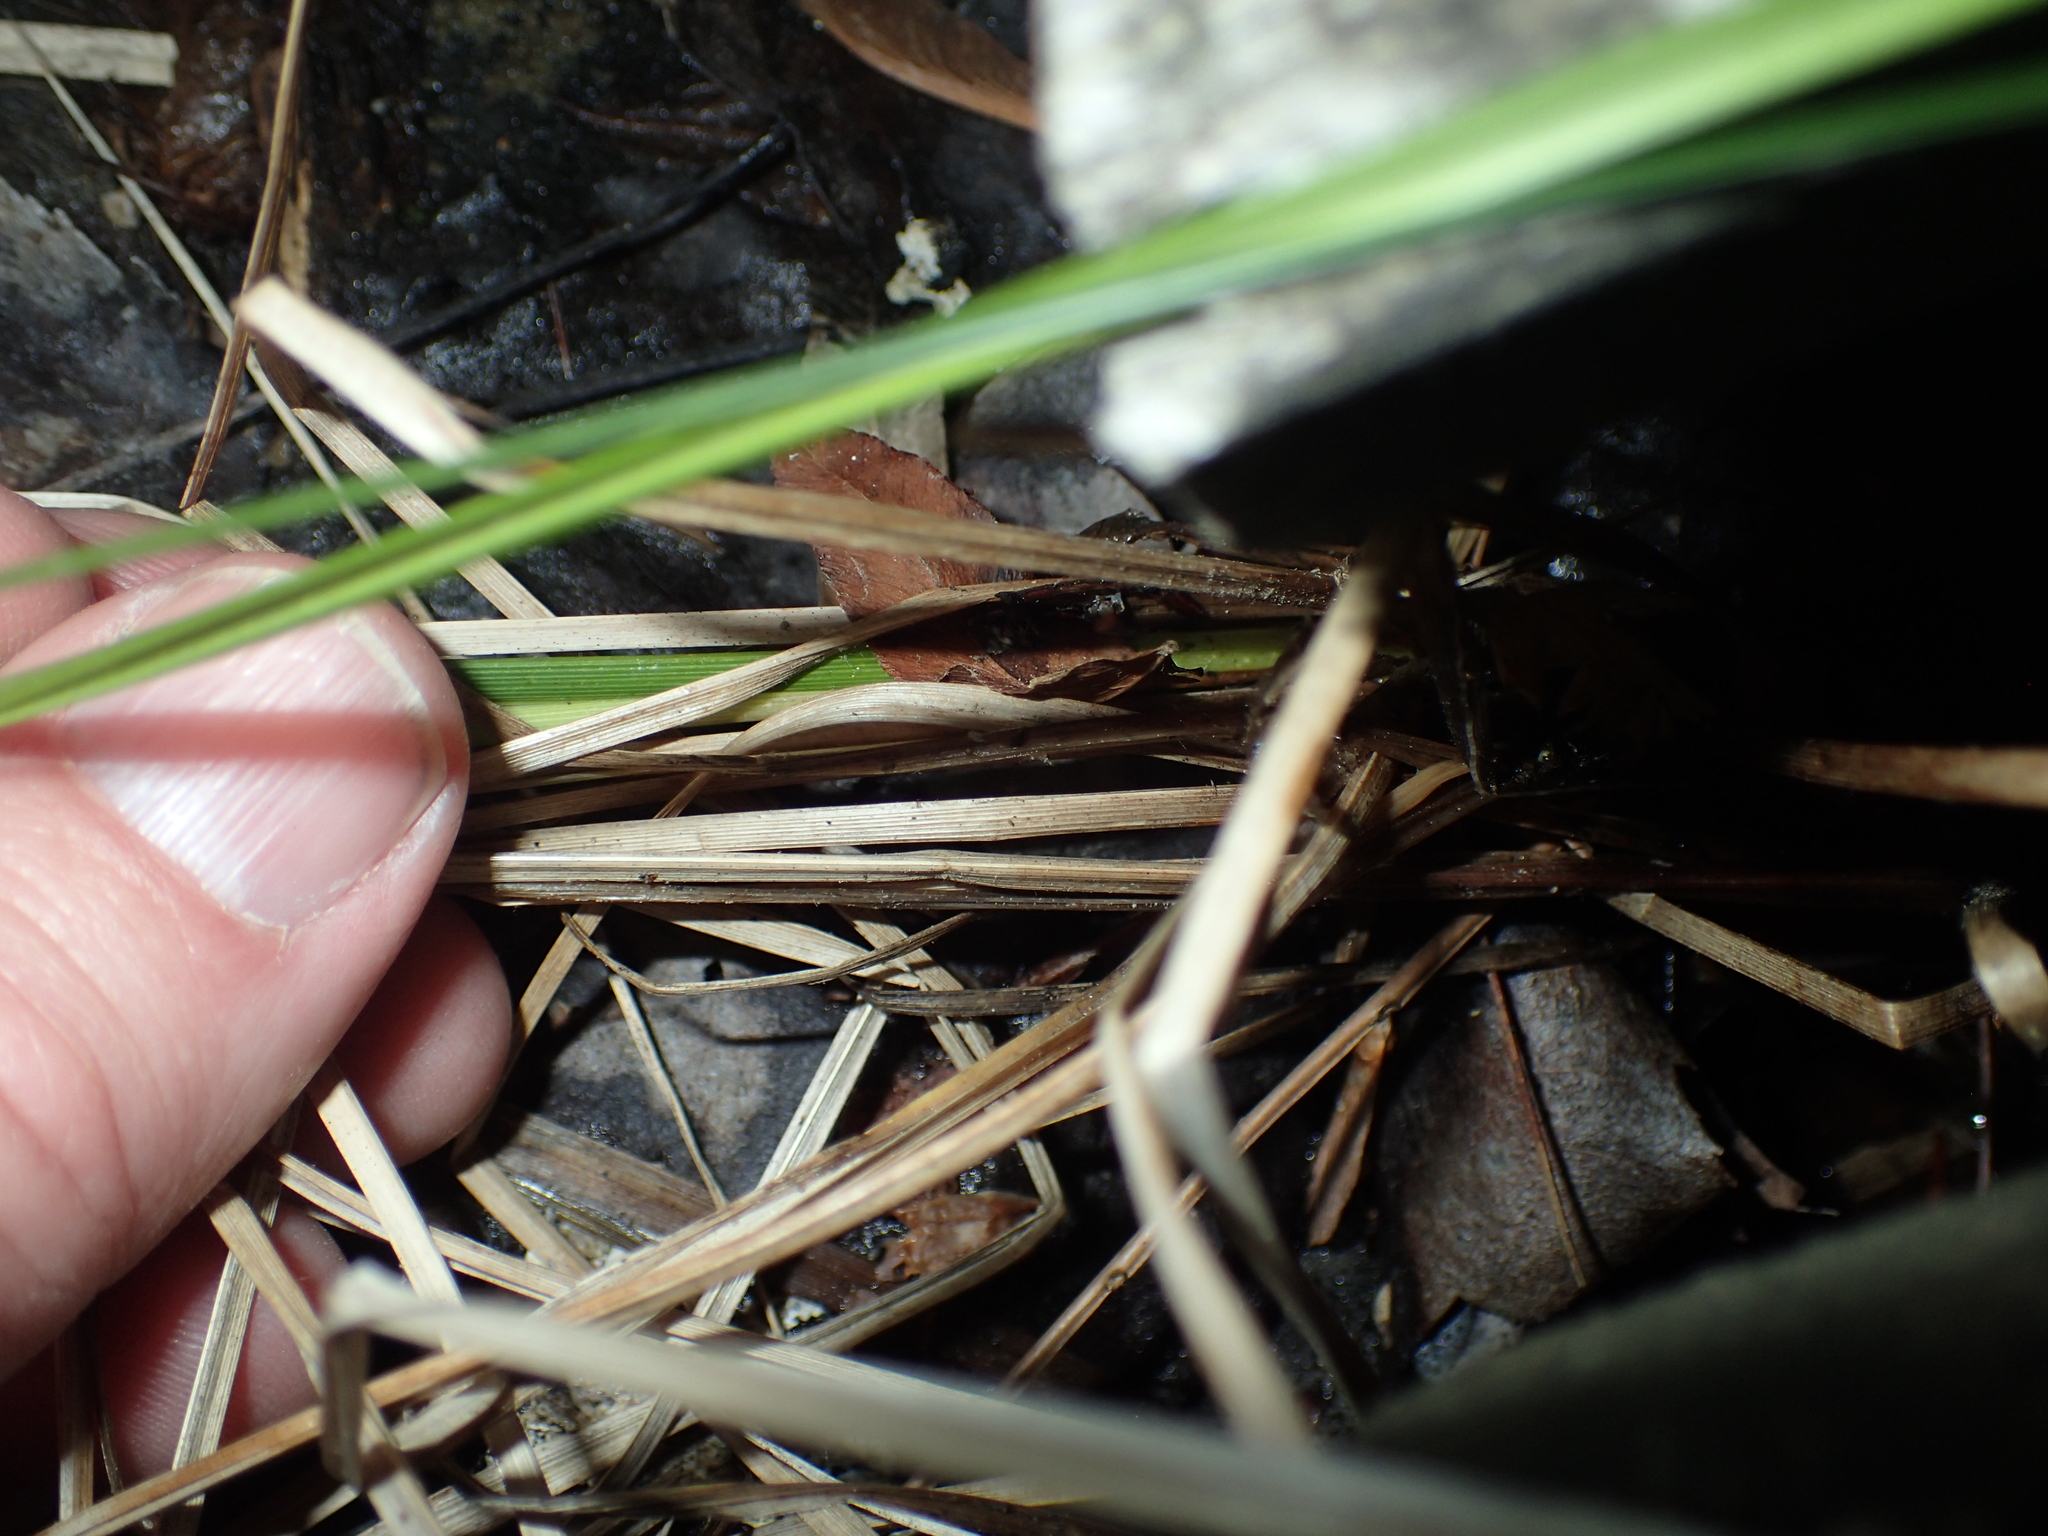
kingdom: Plantae
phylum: Tracheophyta
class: Liliopsida
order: Poales
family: Cyperaceae
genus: Carex
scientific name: Carex bullata
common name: Button sedge
